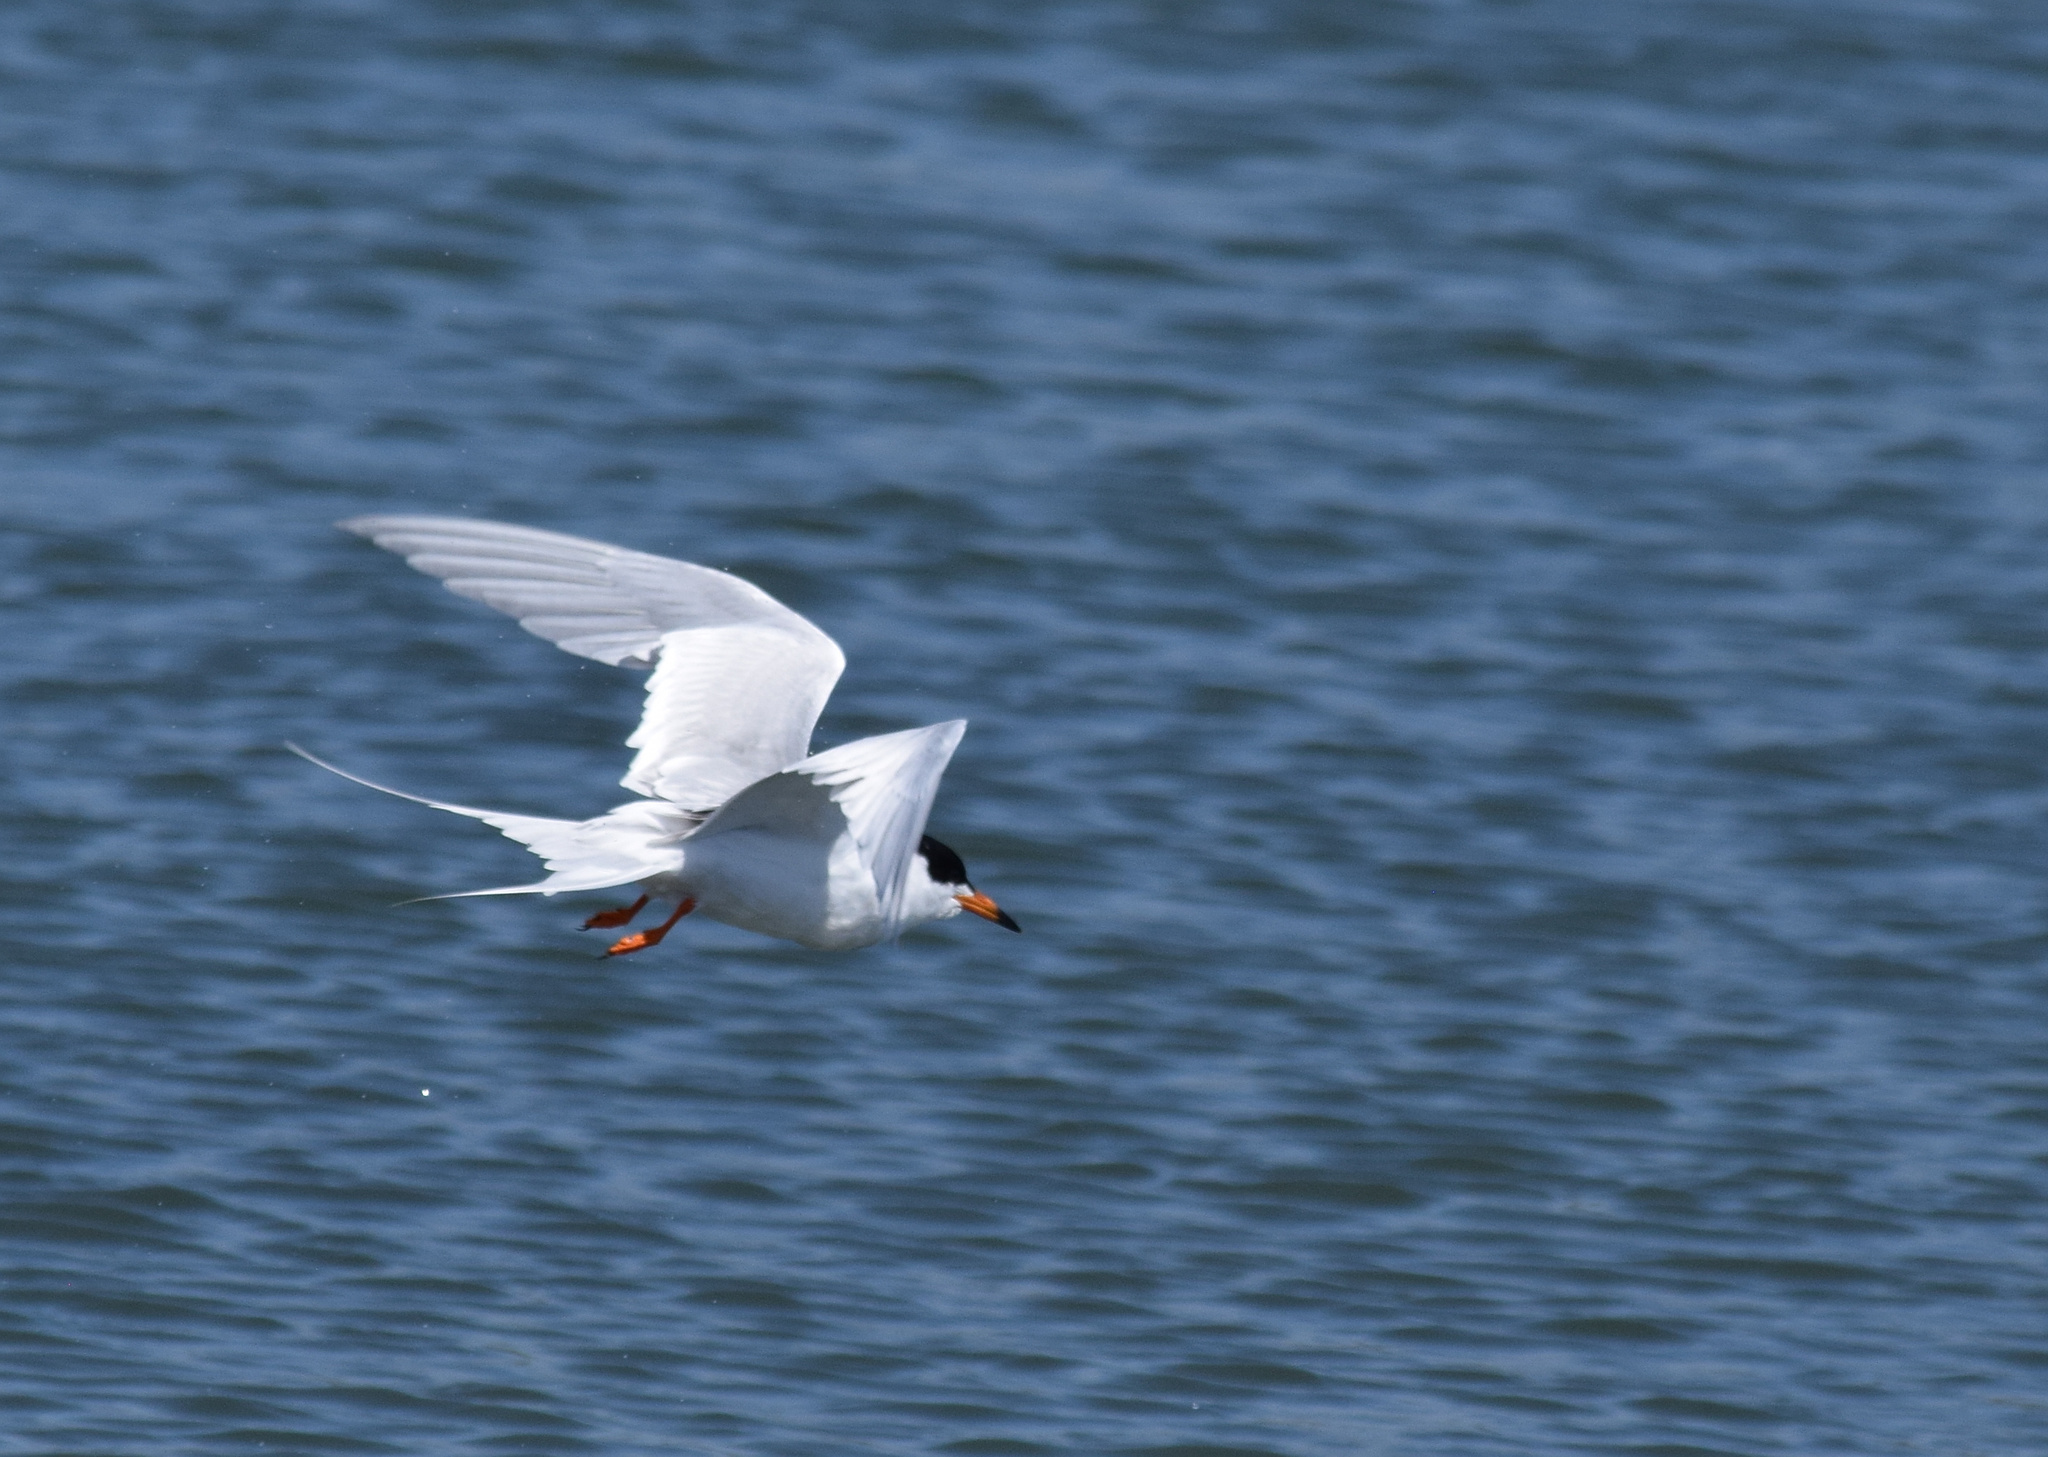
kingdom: Animalia
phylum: Chordata
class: Aves
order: Charadriiformes
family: Laridae
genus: Sterna
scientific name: Sterna forsteri
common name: Forster's tern
